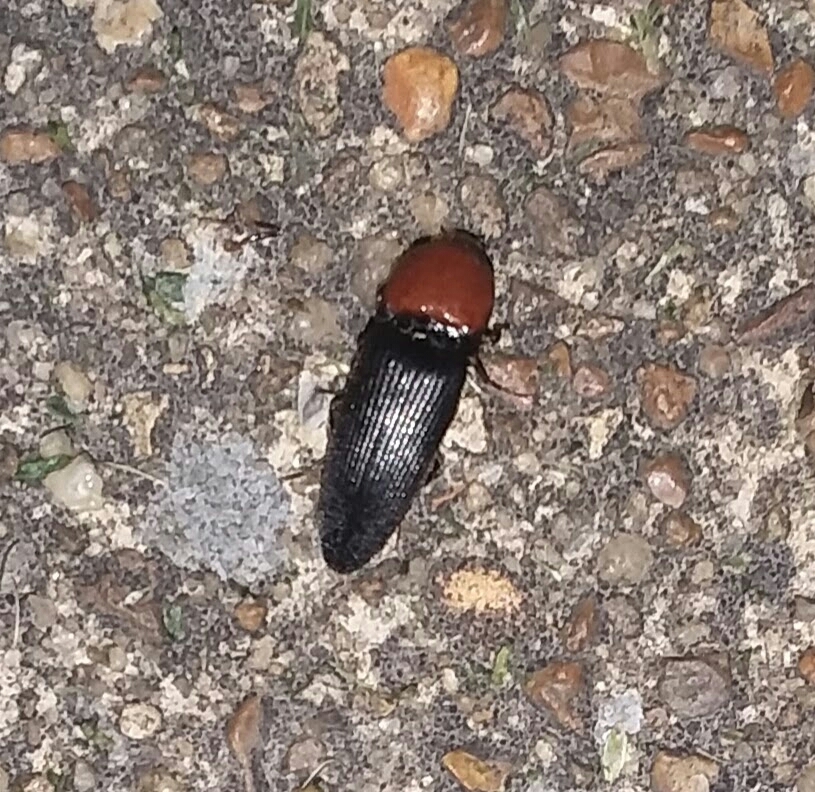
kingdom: Animalia
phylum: Arthropoda
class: Insecta
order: Coleoptera
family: Elateridae
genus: Ampedus
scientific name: Ampedus rubricollis
